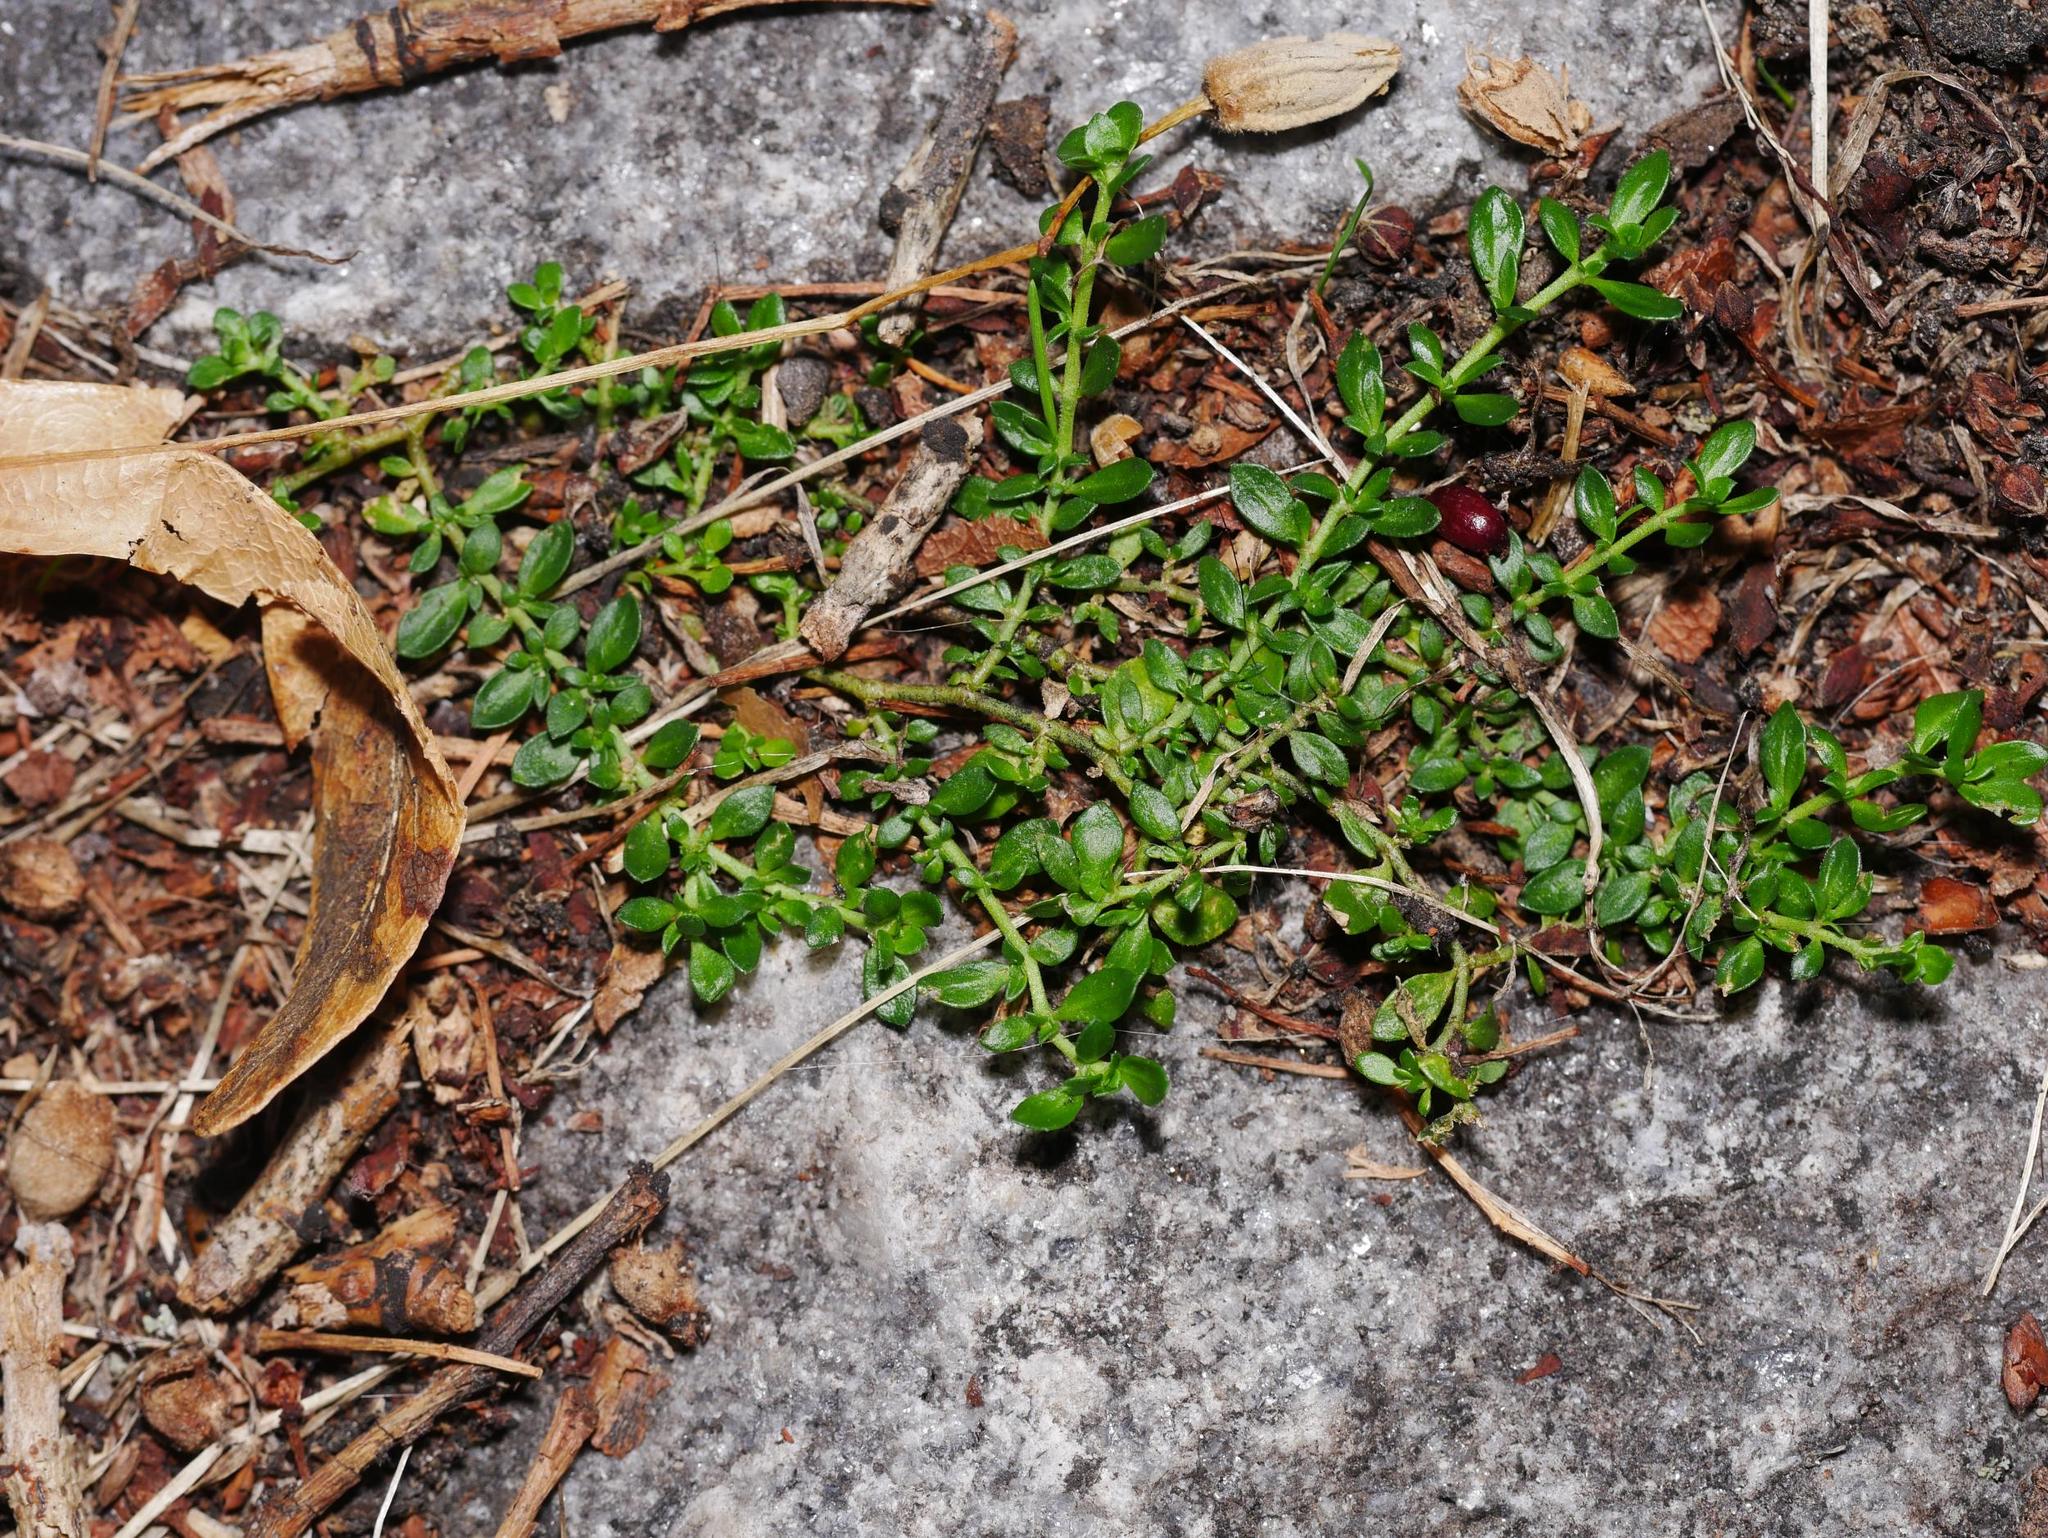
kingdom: Plantae
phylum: Tracheophyta
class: Magnoliopsida
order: Caryophyllales
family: Caryophyllaceae
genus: Herniaria
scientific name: Herniaria glabra
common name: Smooth rupturewort
